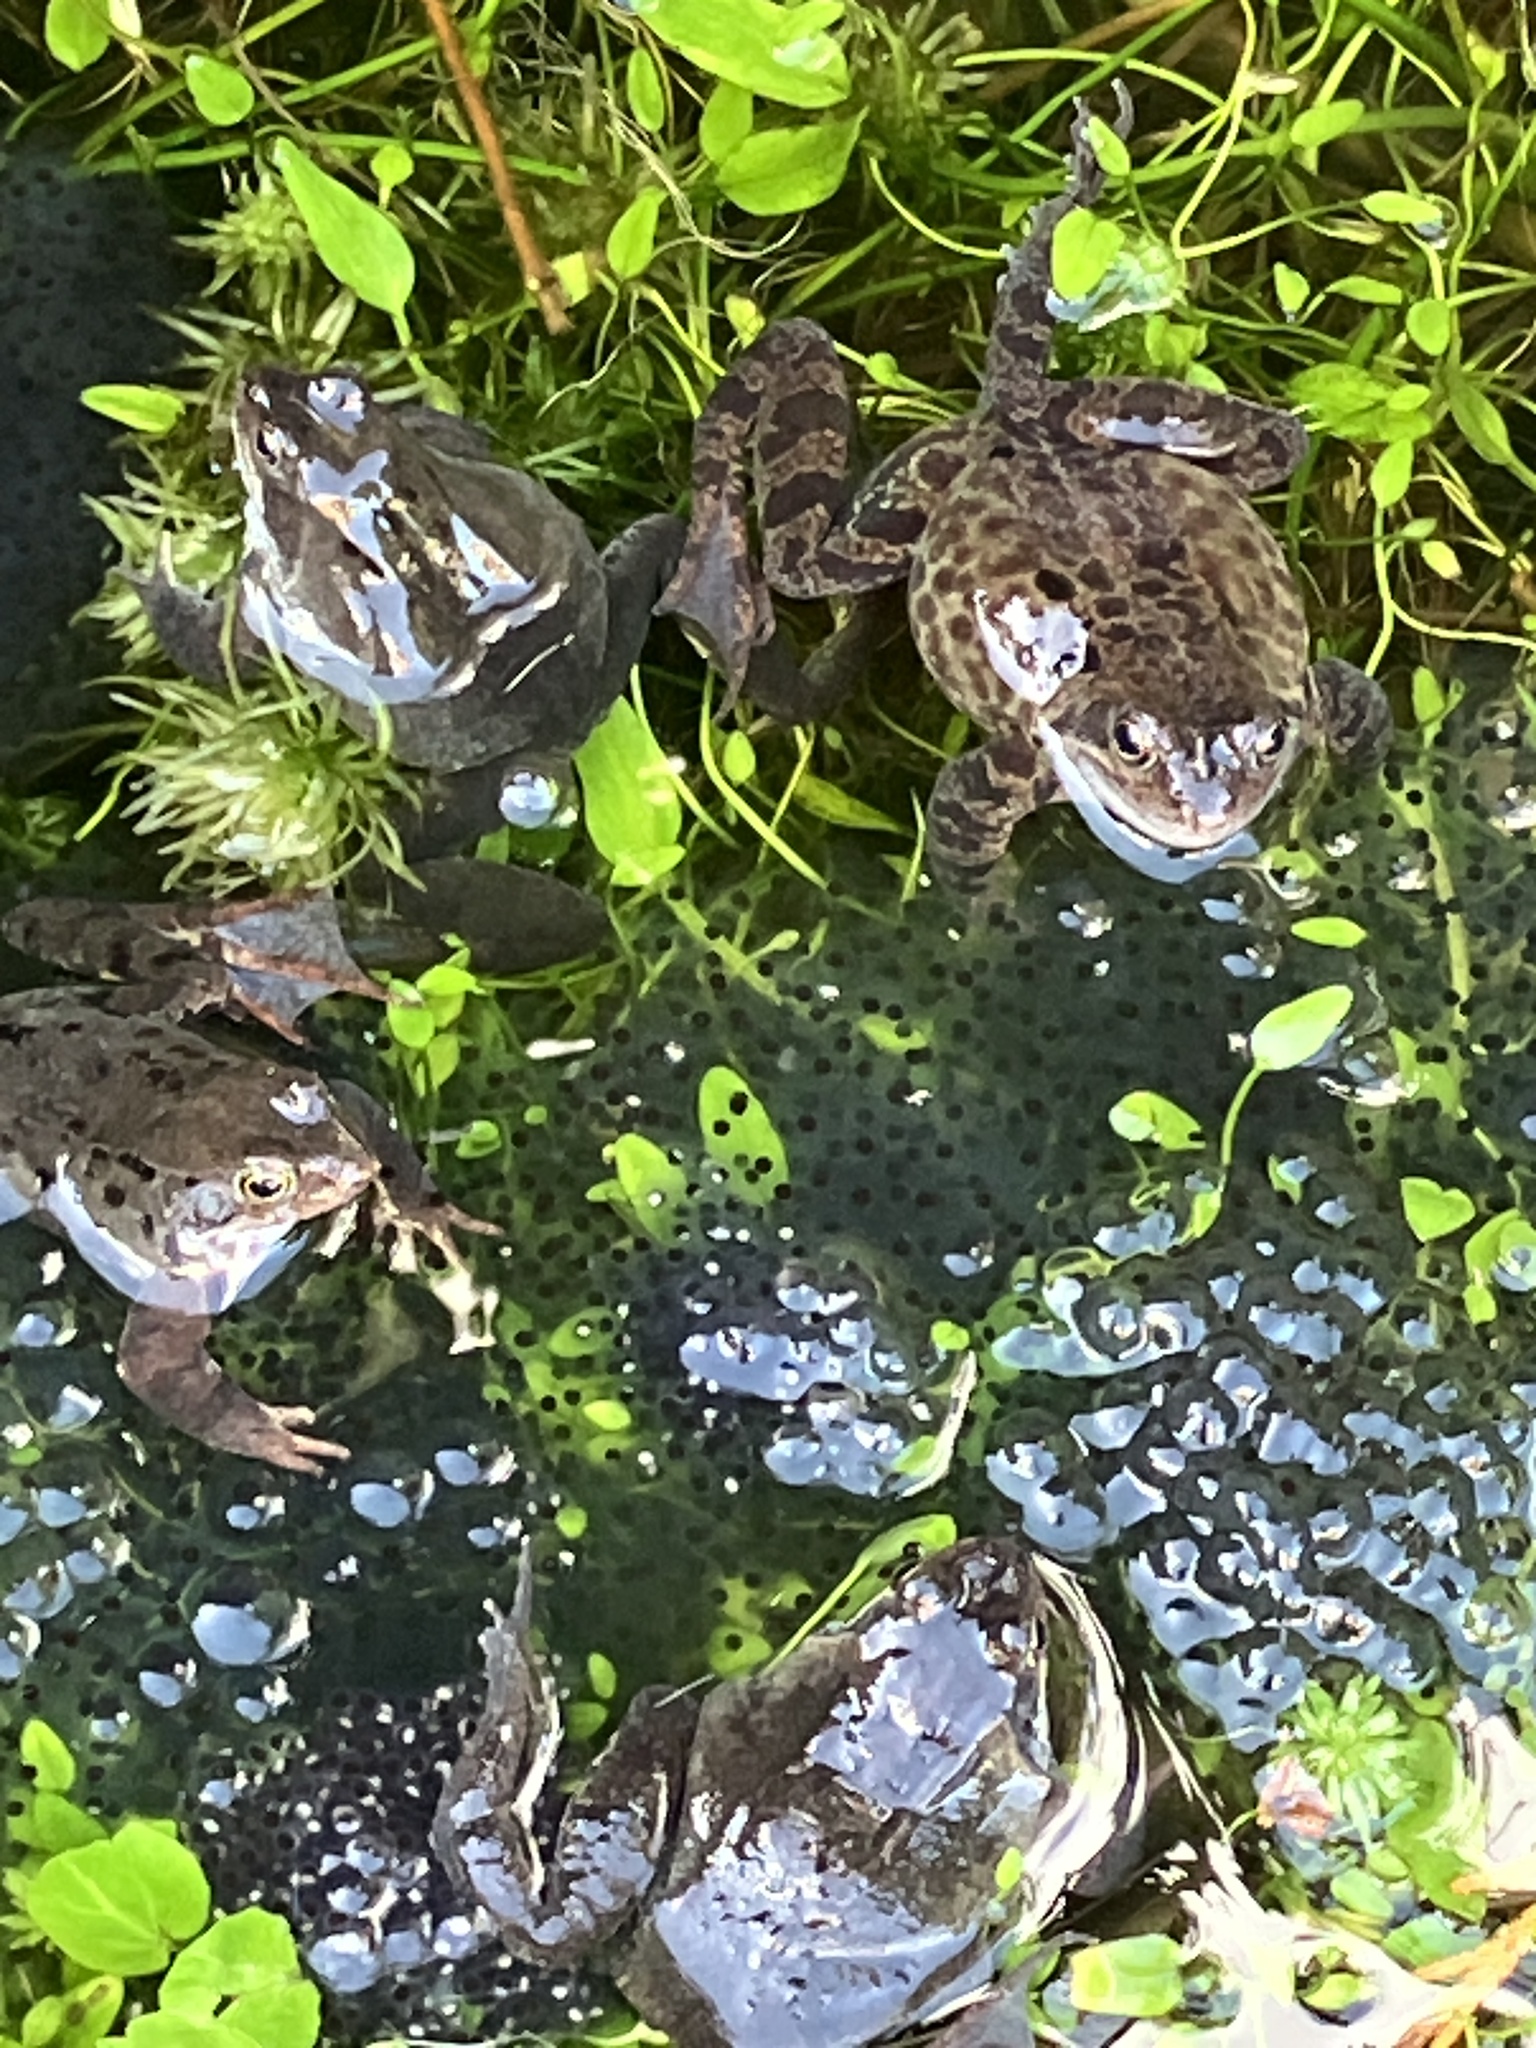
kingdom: Animalia
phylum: Chordata
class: Amphibia
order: Anura
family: Ranidae
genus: Rana
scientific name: Rana temporaria
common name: Common frog
